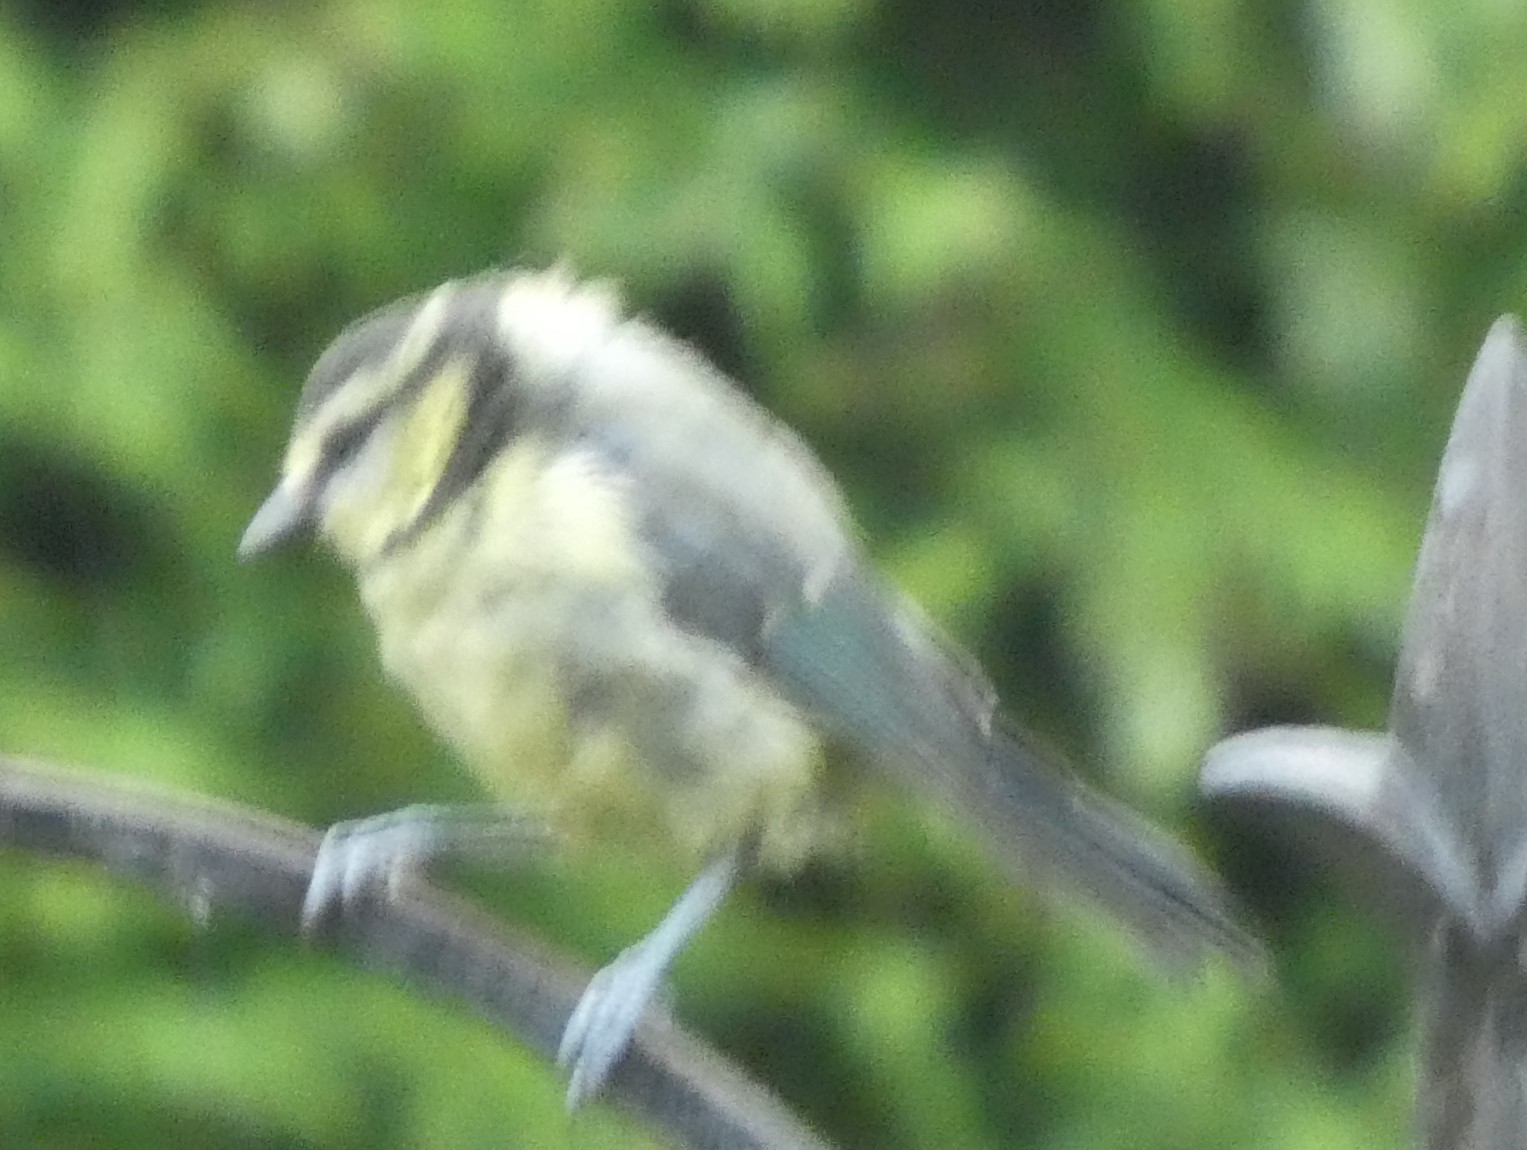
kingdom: Animalia
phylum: Chordata
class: Aves
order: Passeriformes
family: Paridae
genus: Cyanistes
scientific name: Cyanistes caeruleus
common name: Eurasian blue tit
